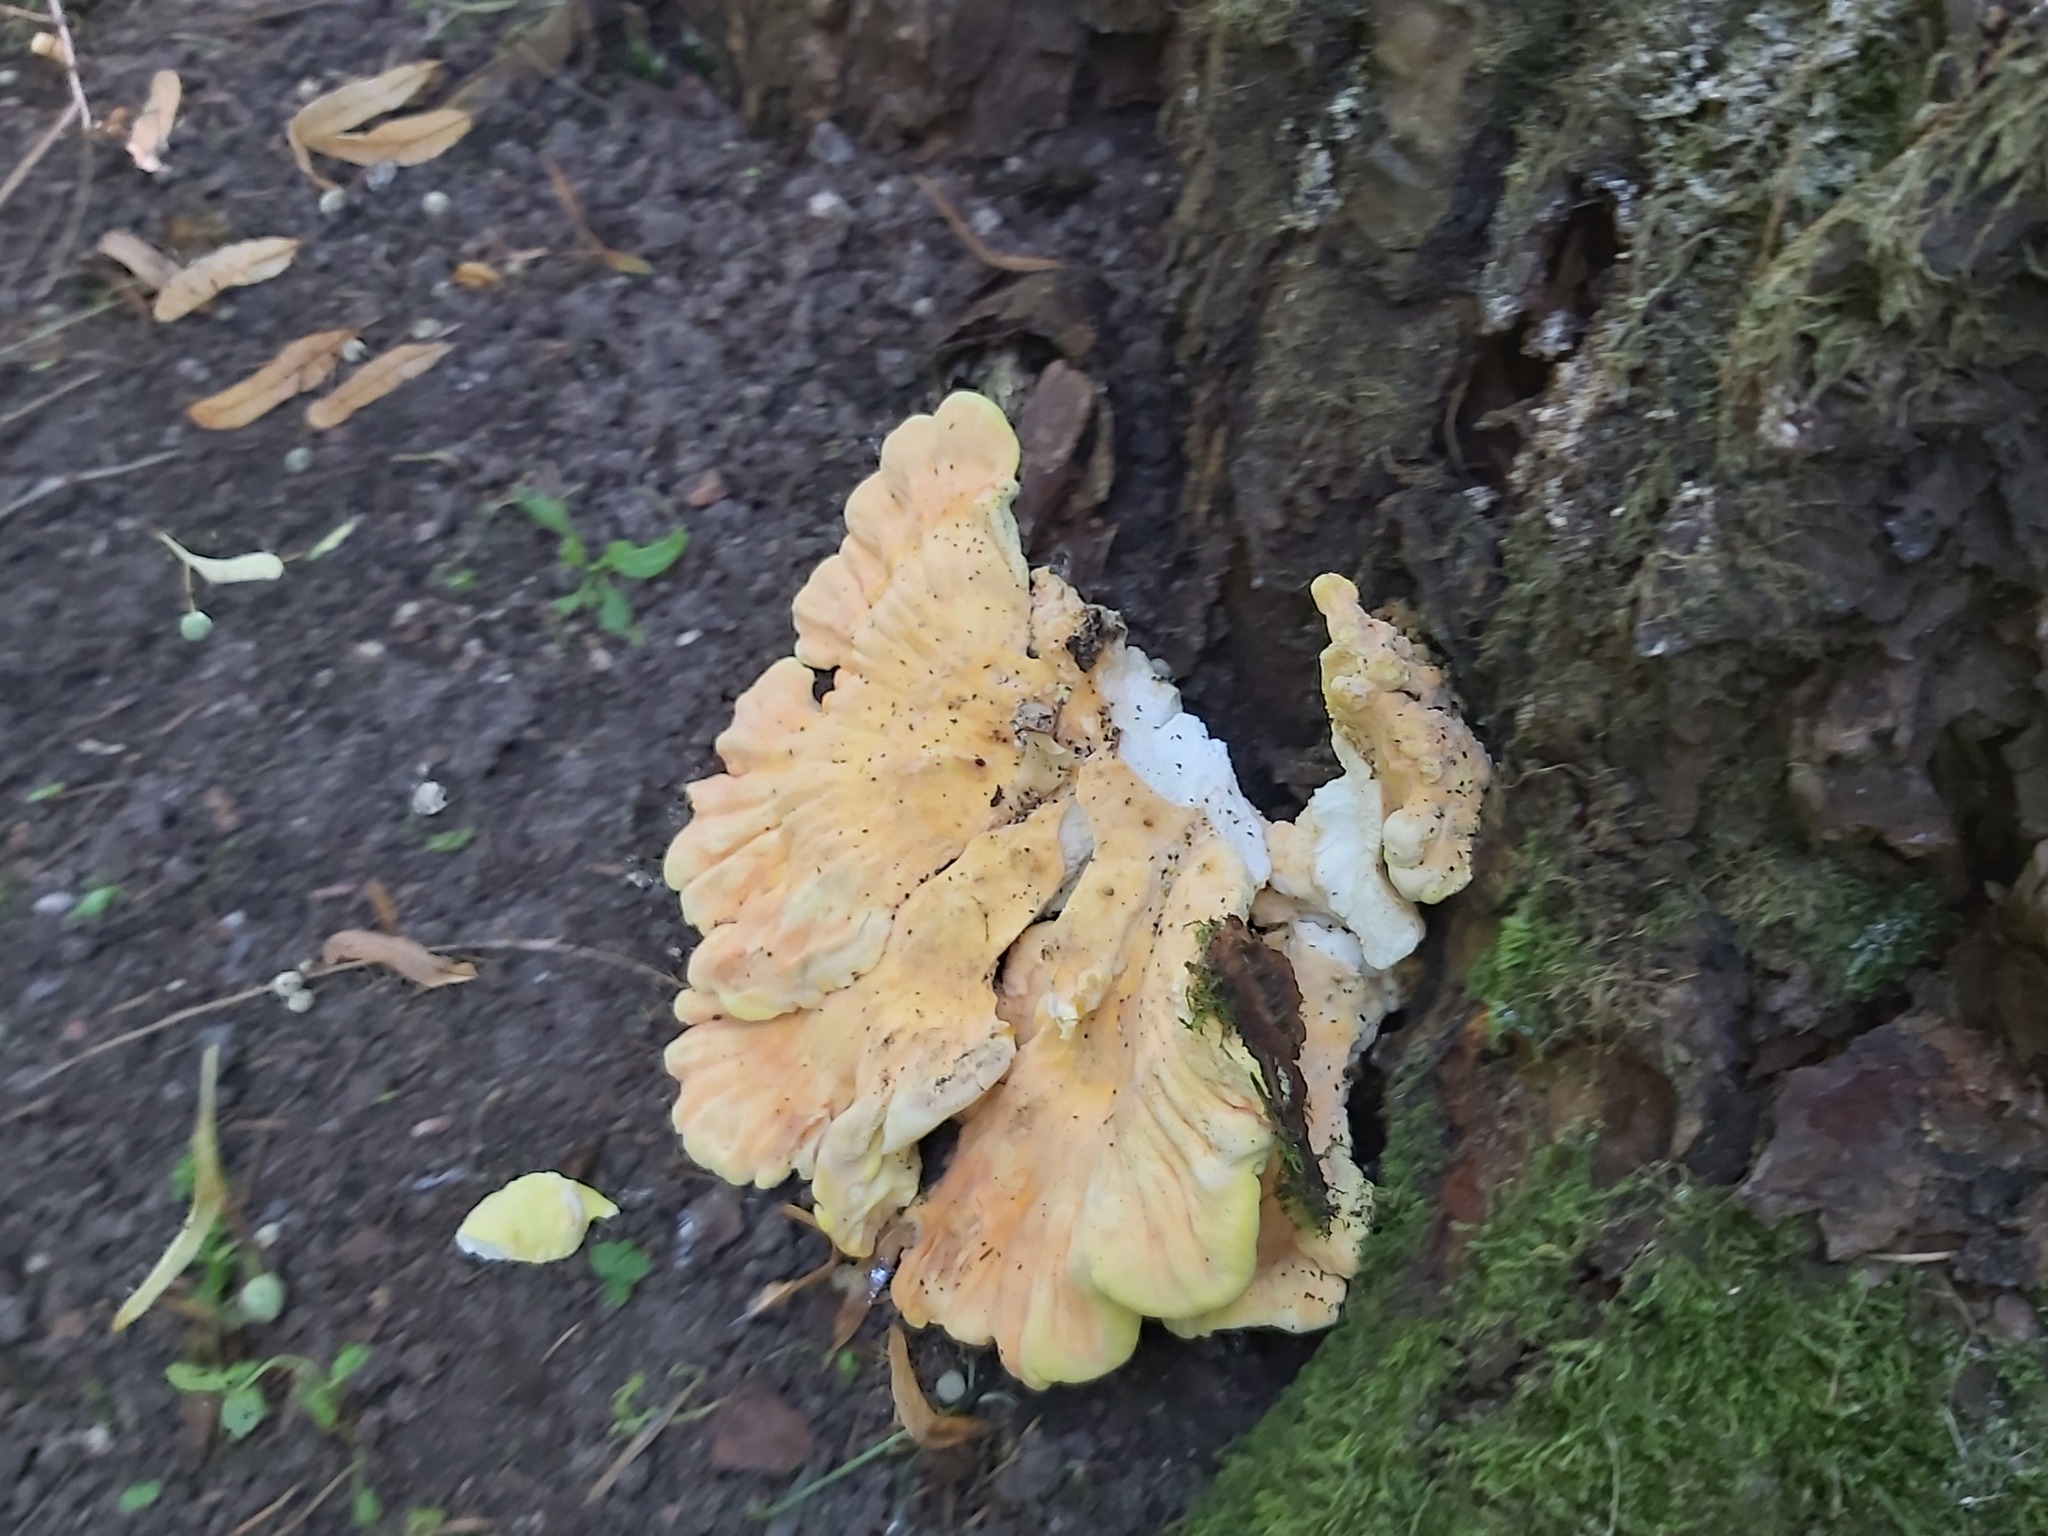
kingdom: Fungi
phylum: Basidiomycota
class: Agaricomycetes
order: Polyporales
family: Laetiporaceae
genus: Laetiporus
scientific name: Laetiporus sulphureus
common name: Chicken of the woods
